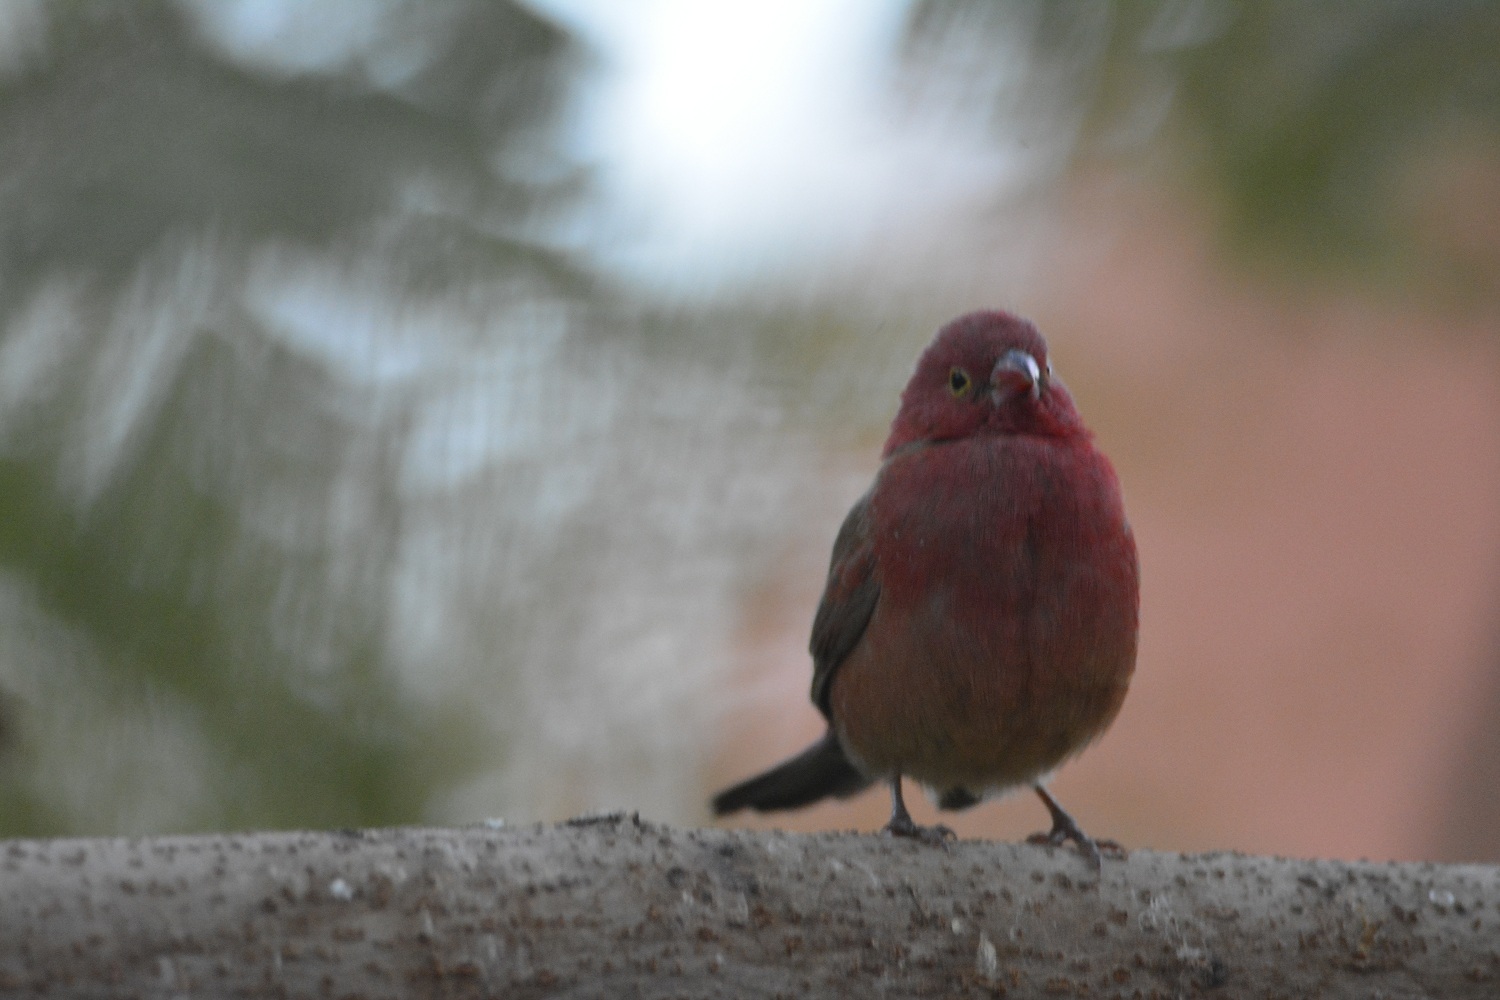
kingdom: Animalia
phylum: Chordata
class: Aves
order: Passeriformes
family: Estrildidae
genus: Lagonosticta
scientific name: Lagonosticta senegala
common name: Red-billed firefinch
